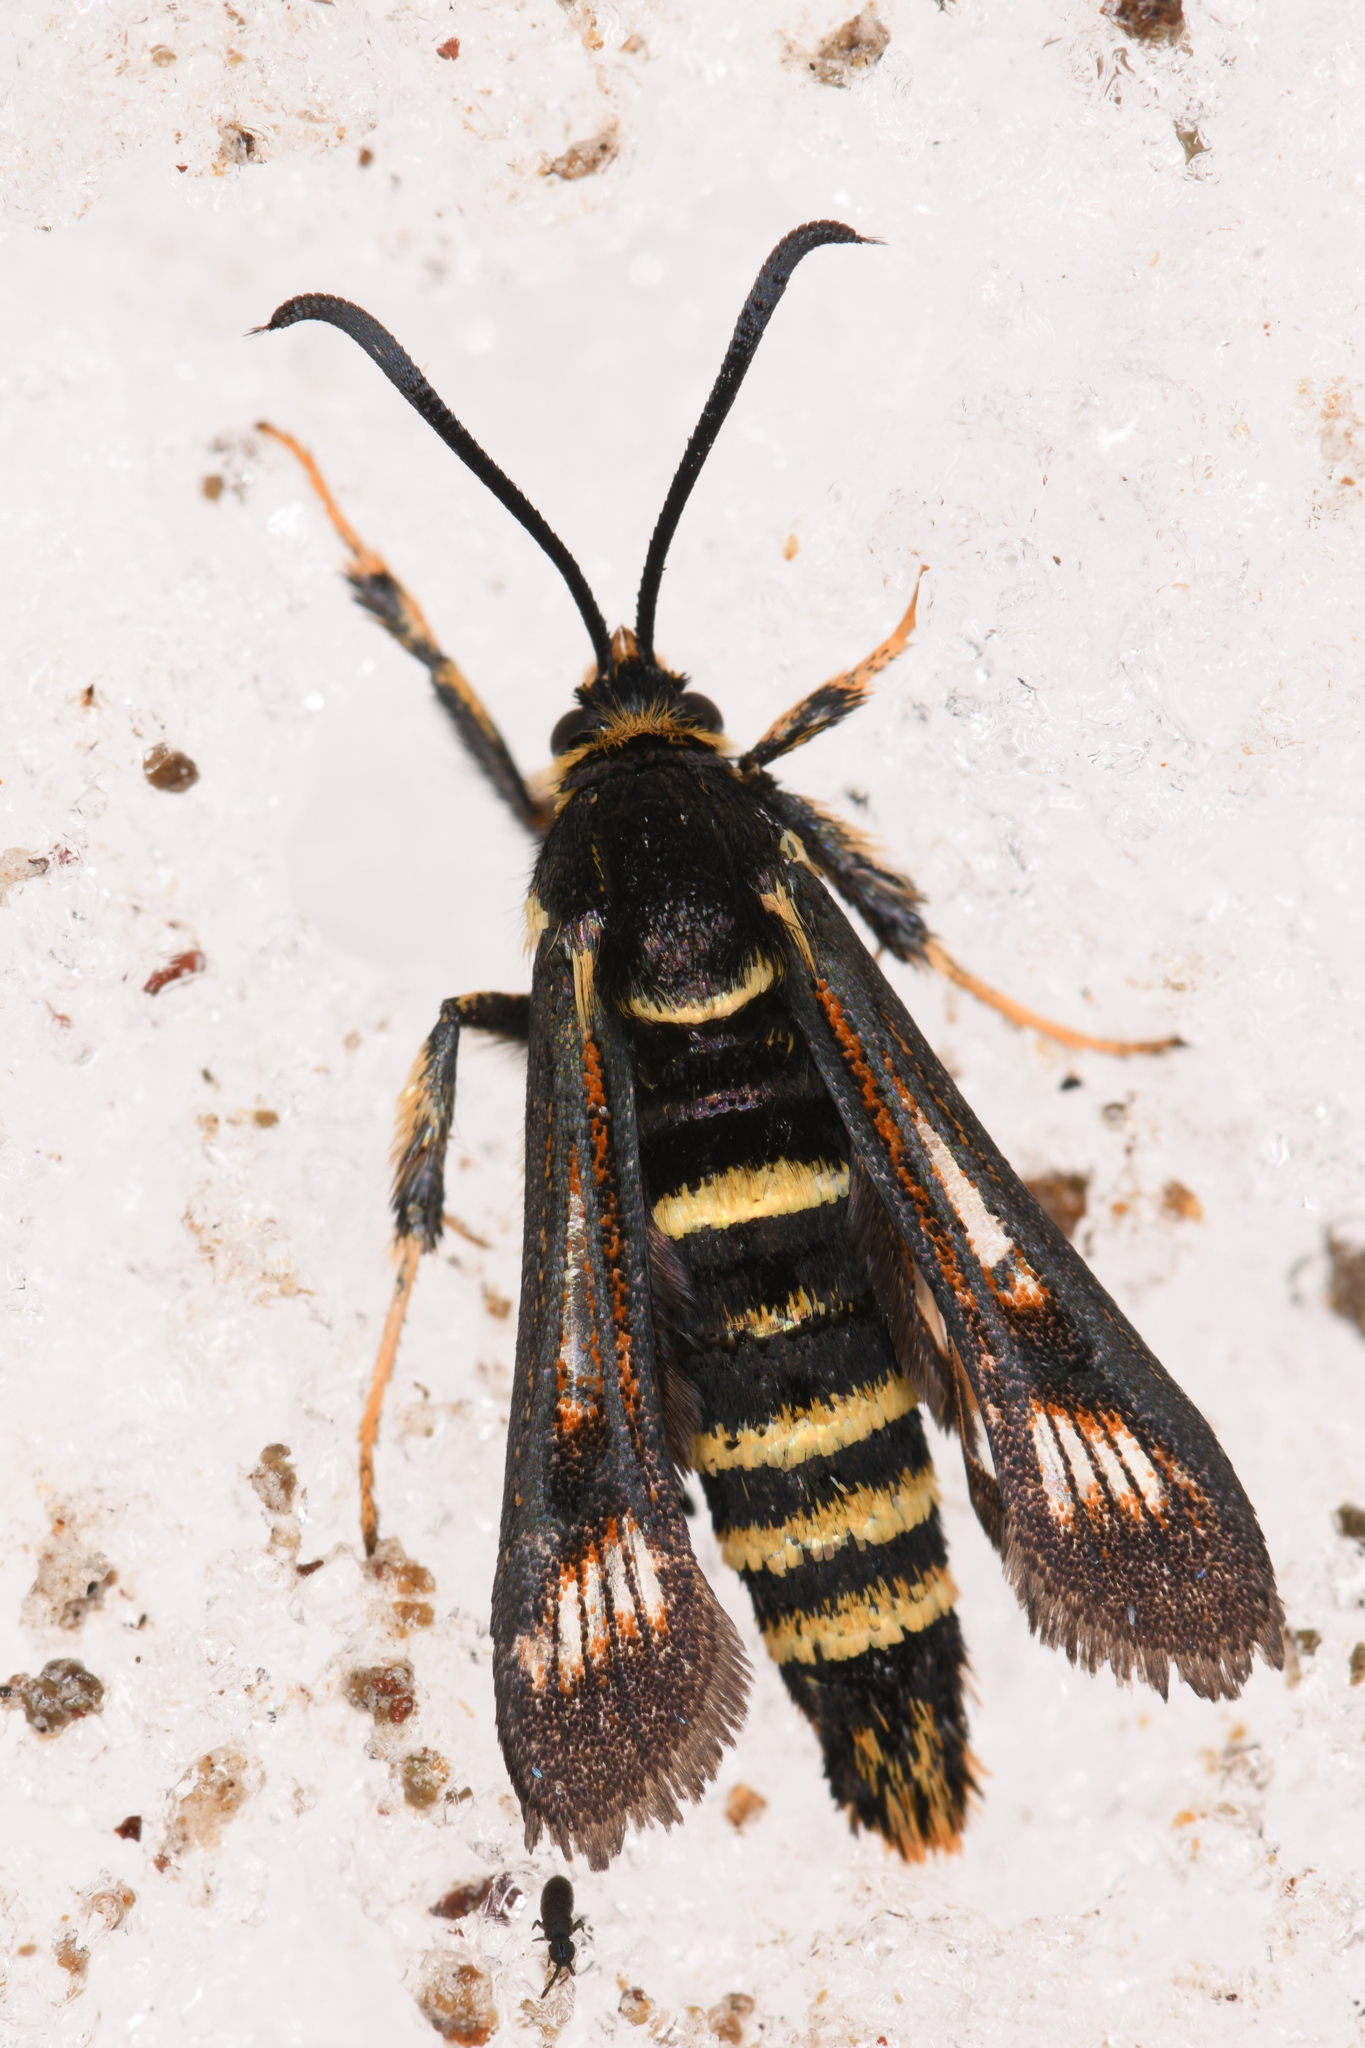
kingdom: Animalia
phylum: Arthropoda
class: Insecta
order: Lepidoptera
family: Sesiidae
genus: Albuna
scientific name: Albuna pyramidalis
